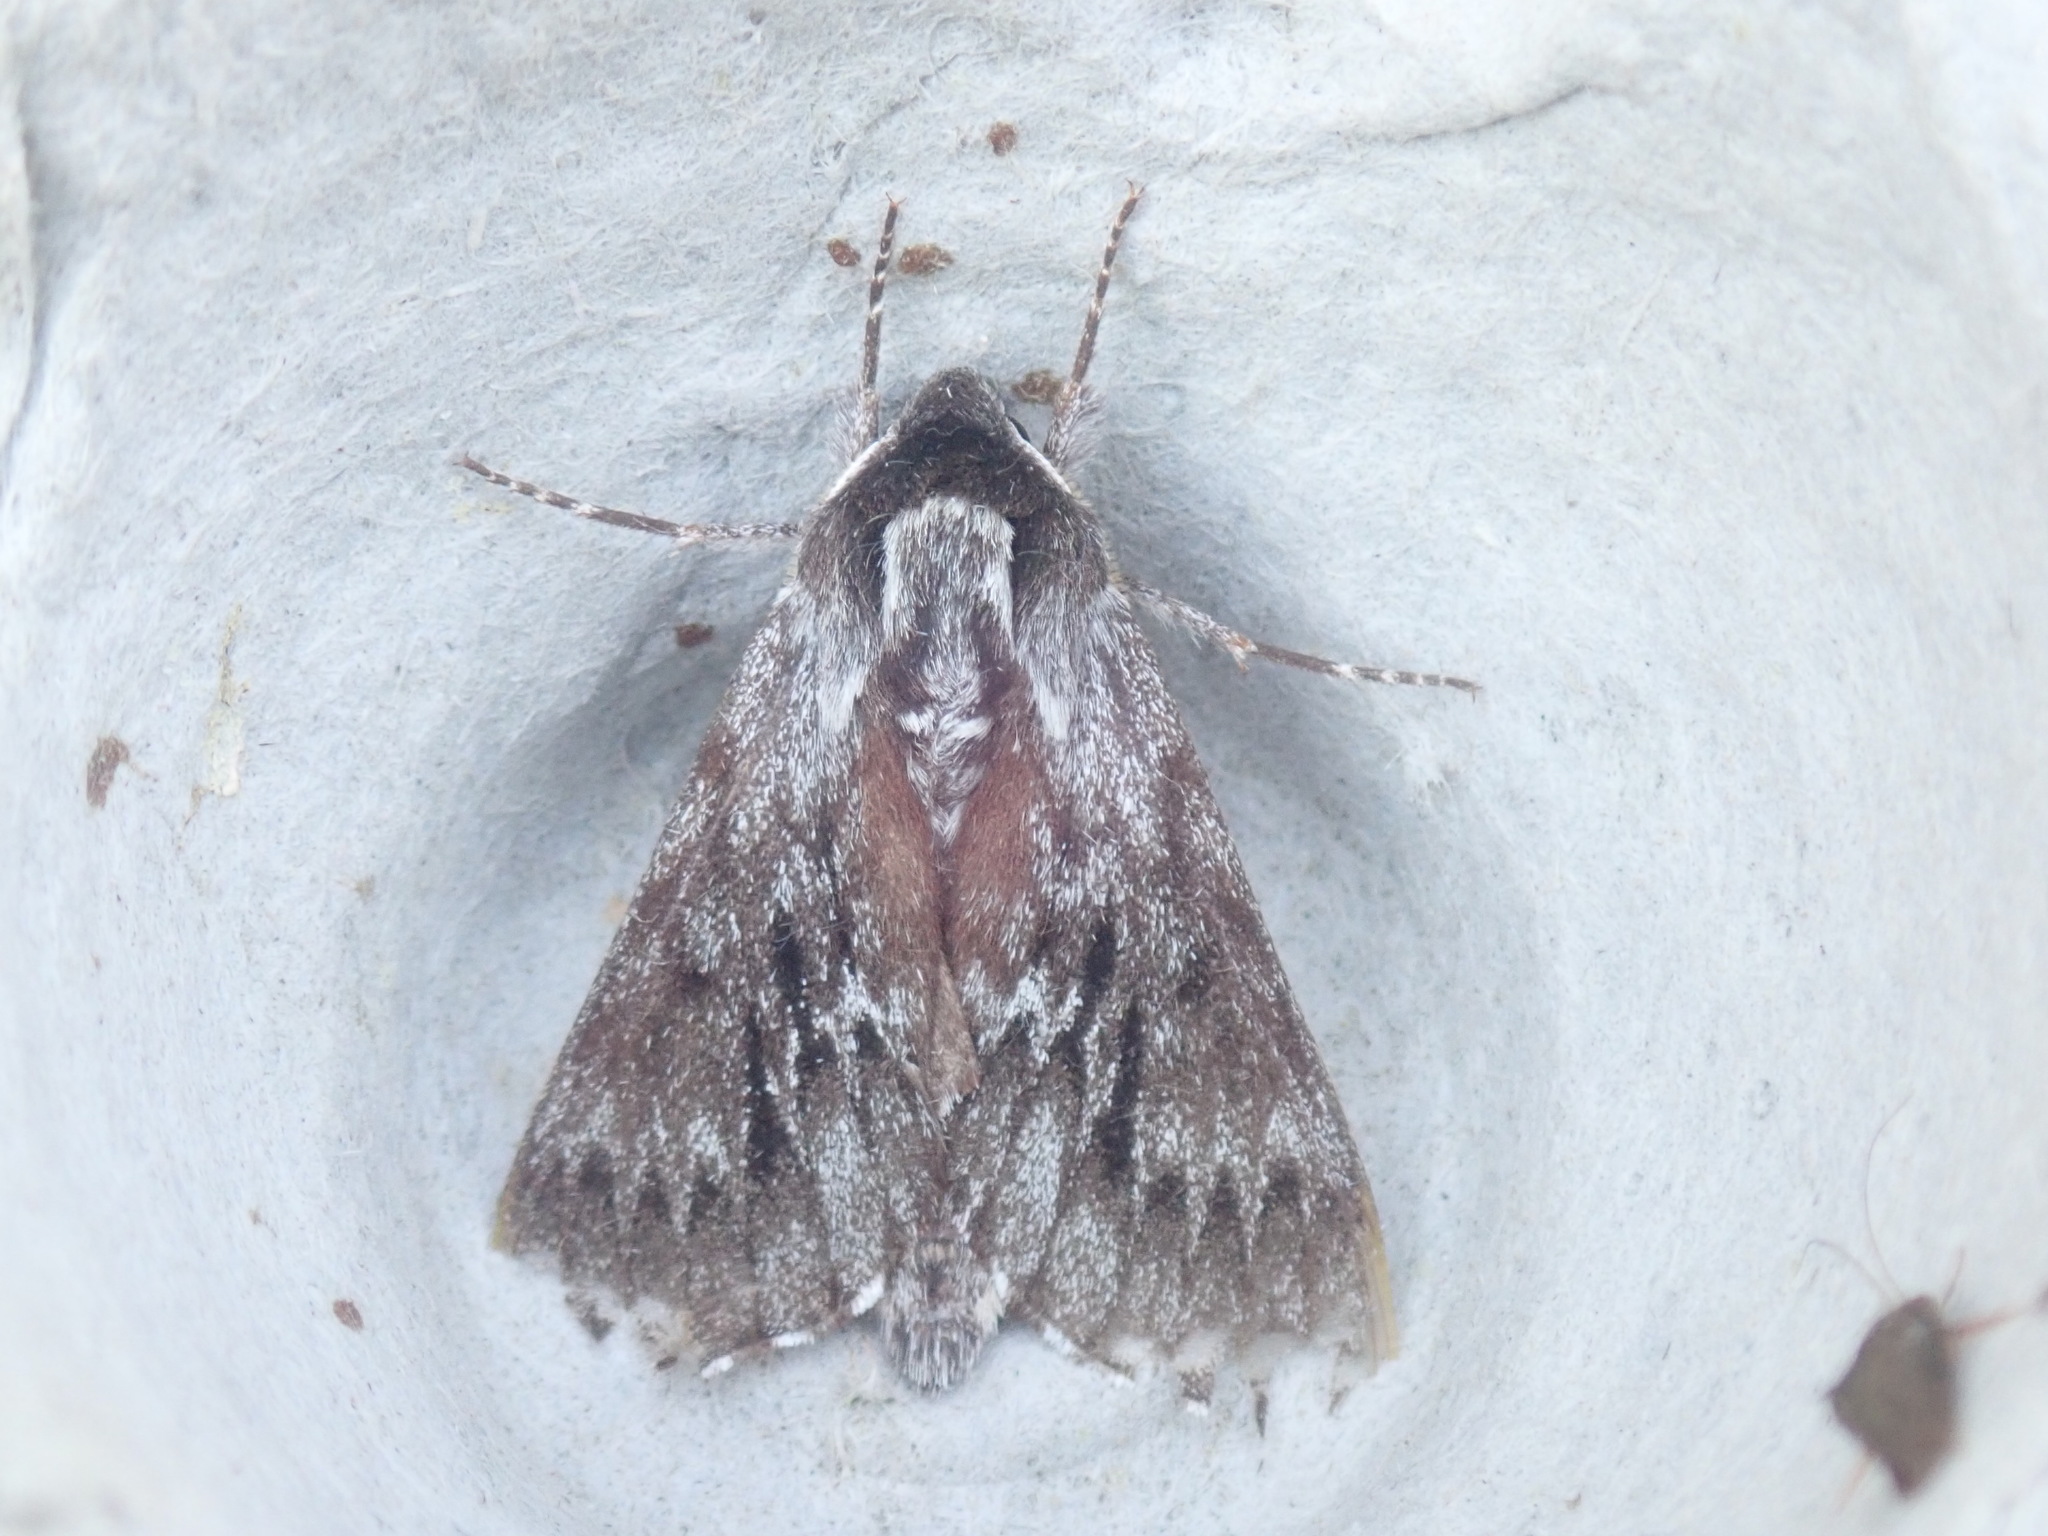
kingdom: Animalia
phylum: Arthropoda
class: Insecta
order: Lepidoptera
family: Sphingidae
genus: Lapara
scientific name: Lapara bombycoides
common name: Northern pine sphinx
